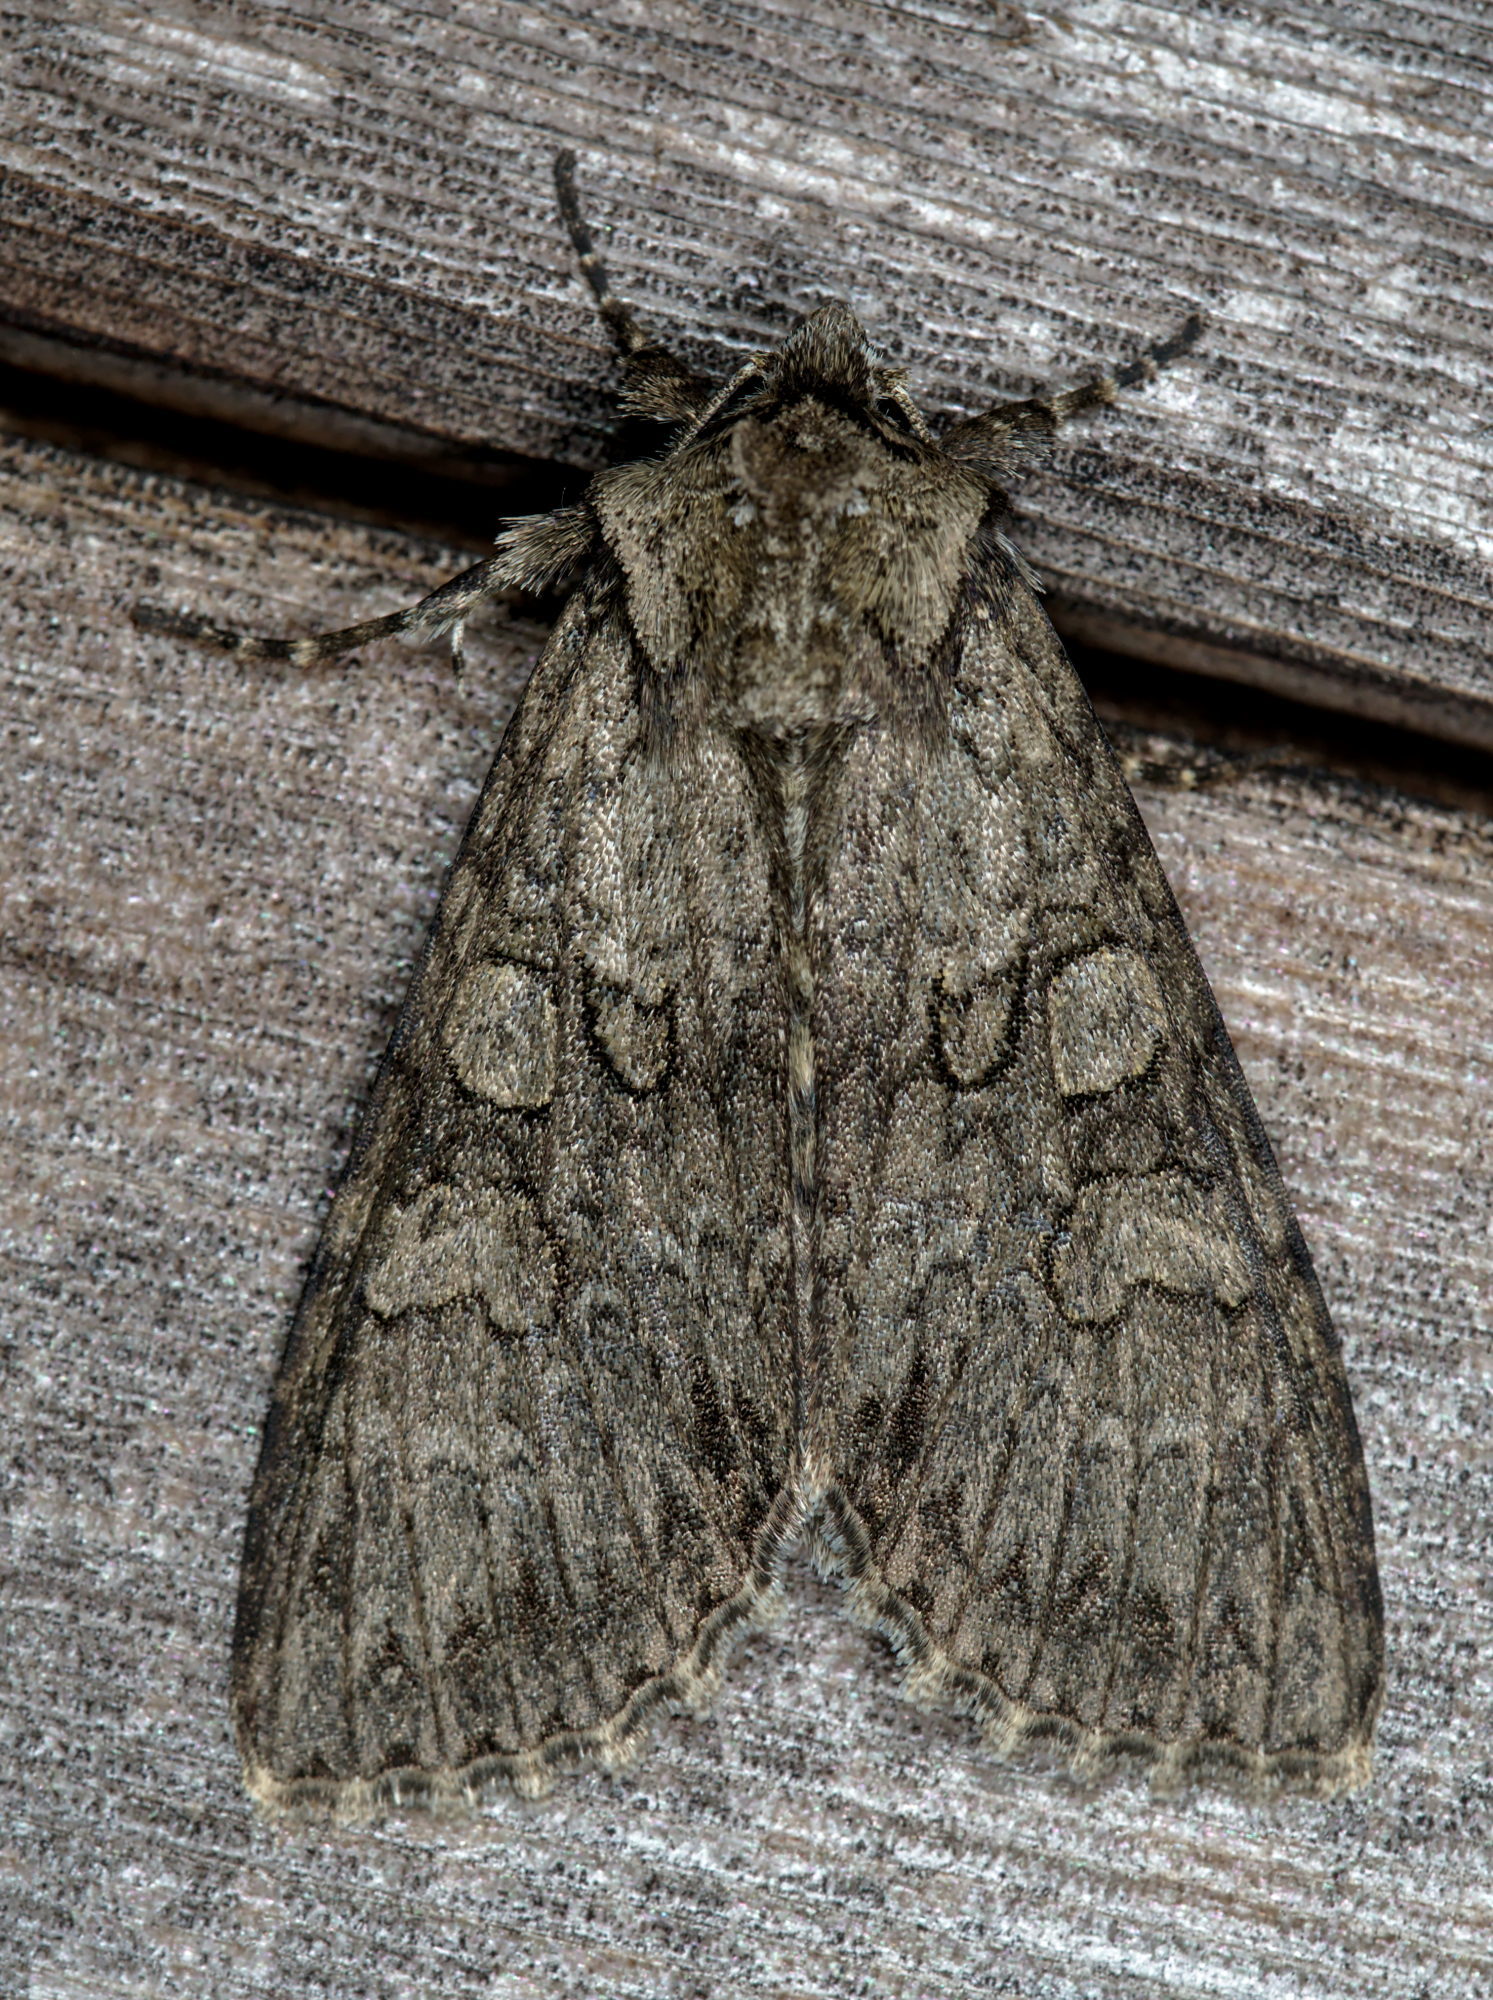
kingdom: Animalia
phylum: Arthropoda
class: Insecta
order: Lepidoptera
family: Noctuidae
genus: Polia
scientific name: Polia nebulosa
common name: Grey arches
